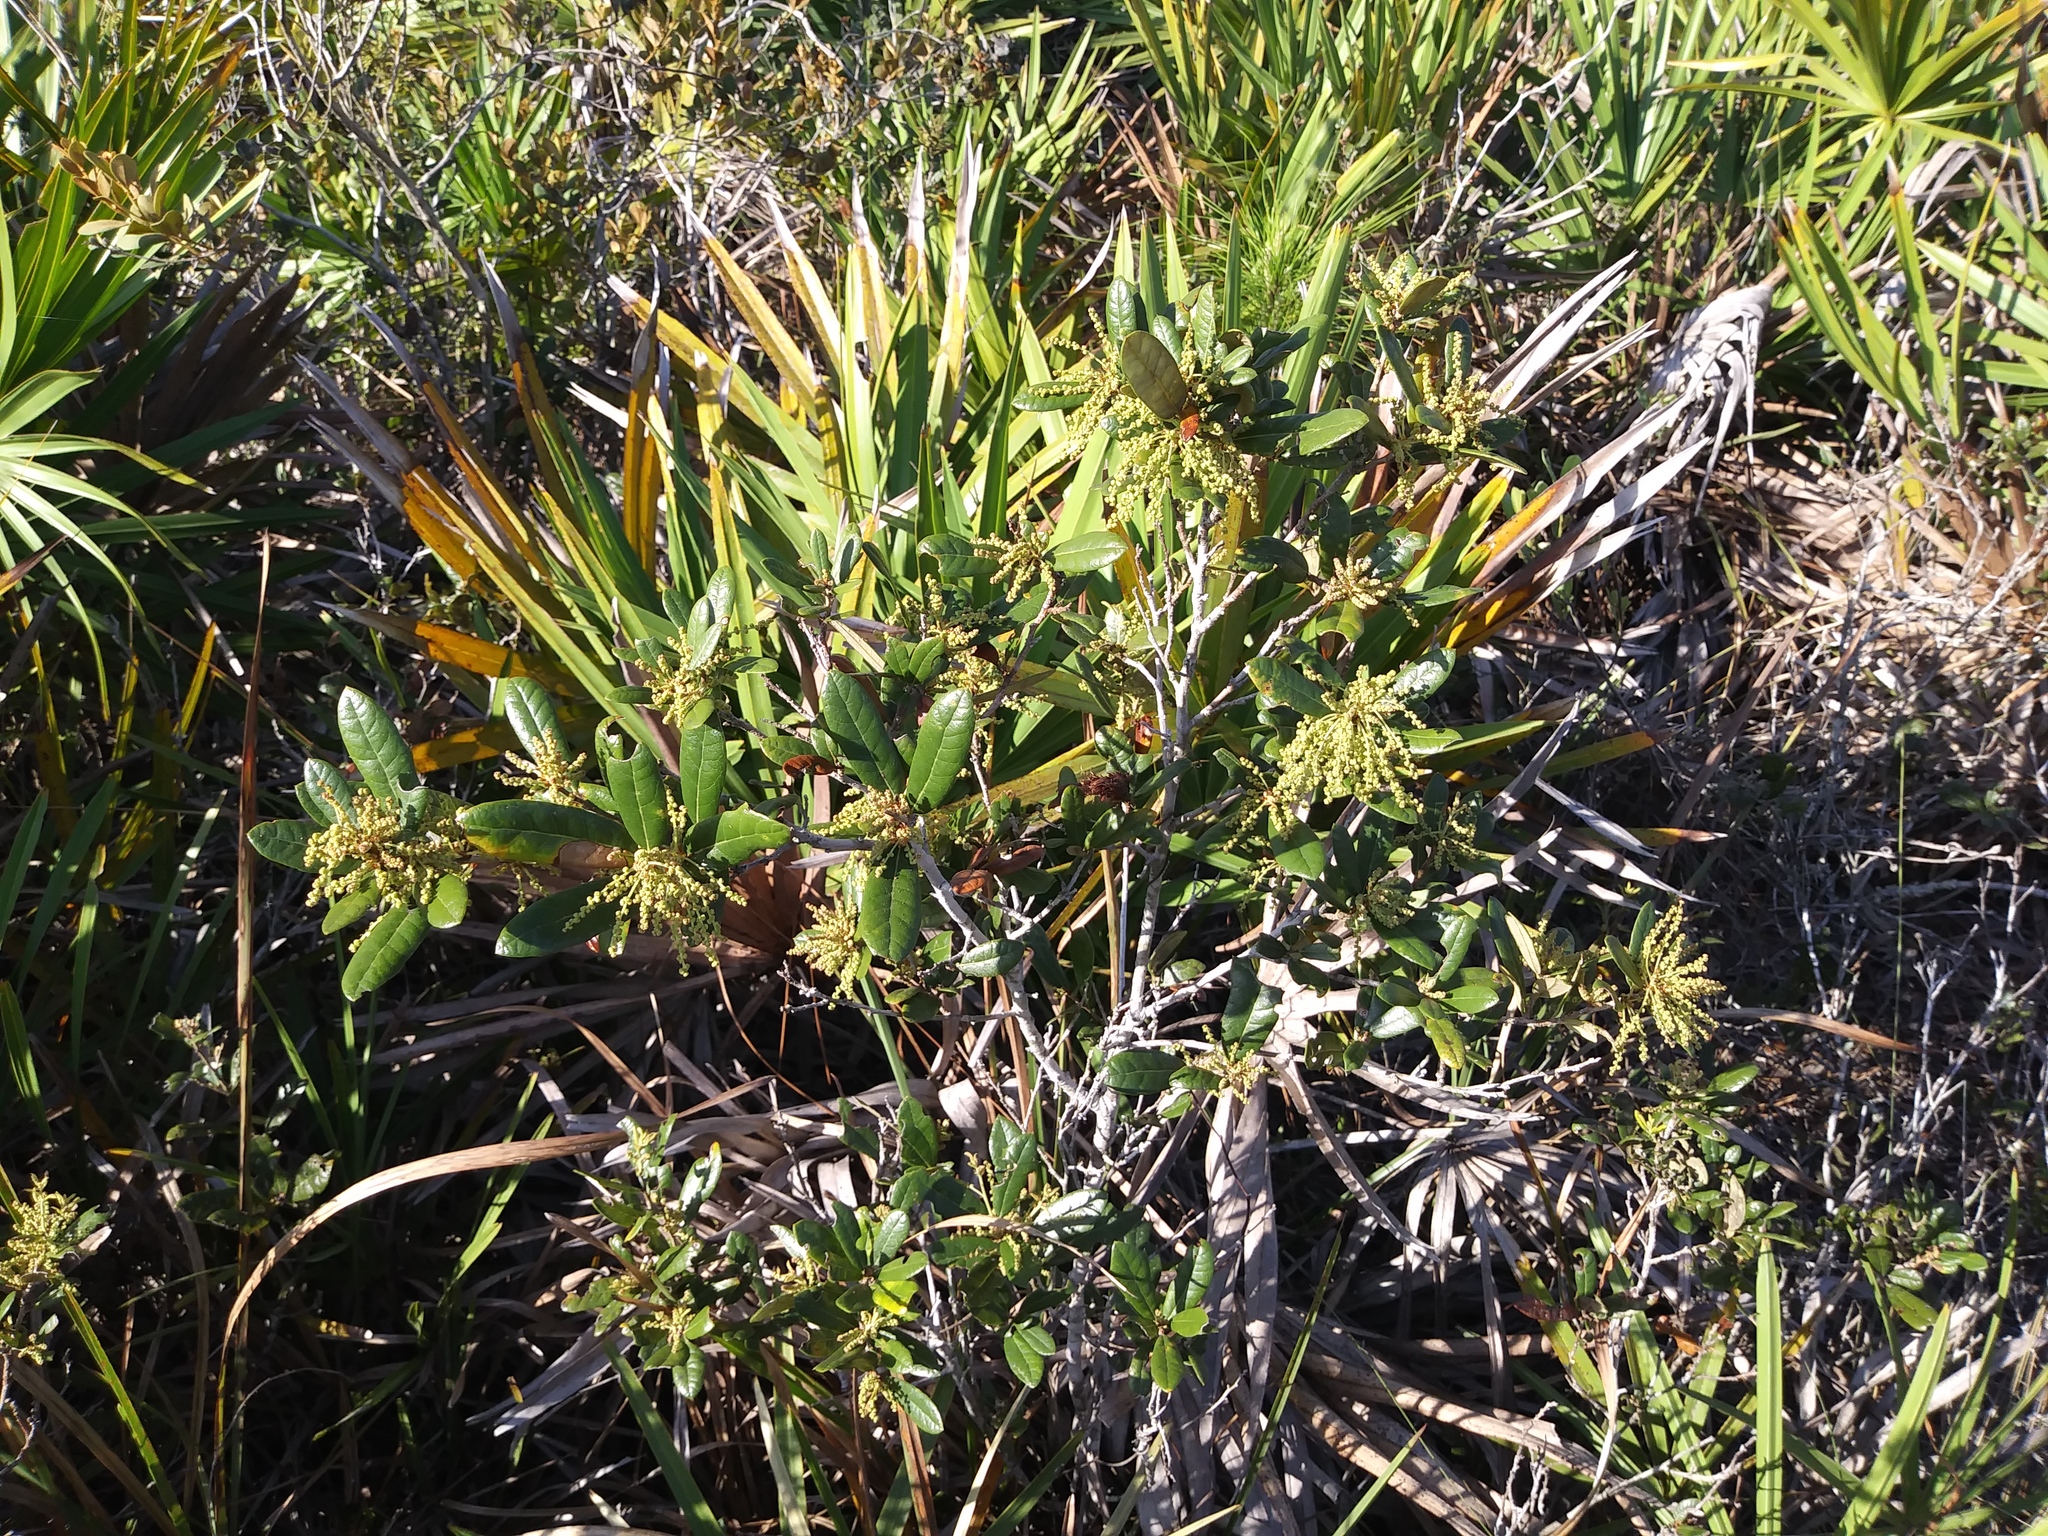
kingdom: Plantae
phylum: Tracheophyta
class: Magnoliopsida
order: Fagales
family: Fagaceae
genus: Quercus
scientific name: Quercus succulenta
